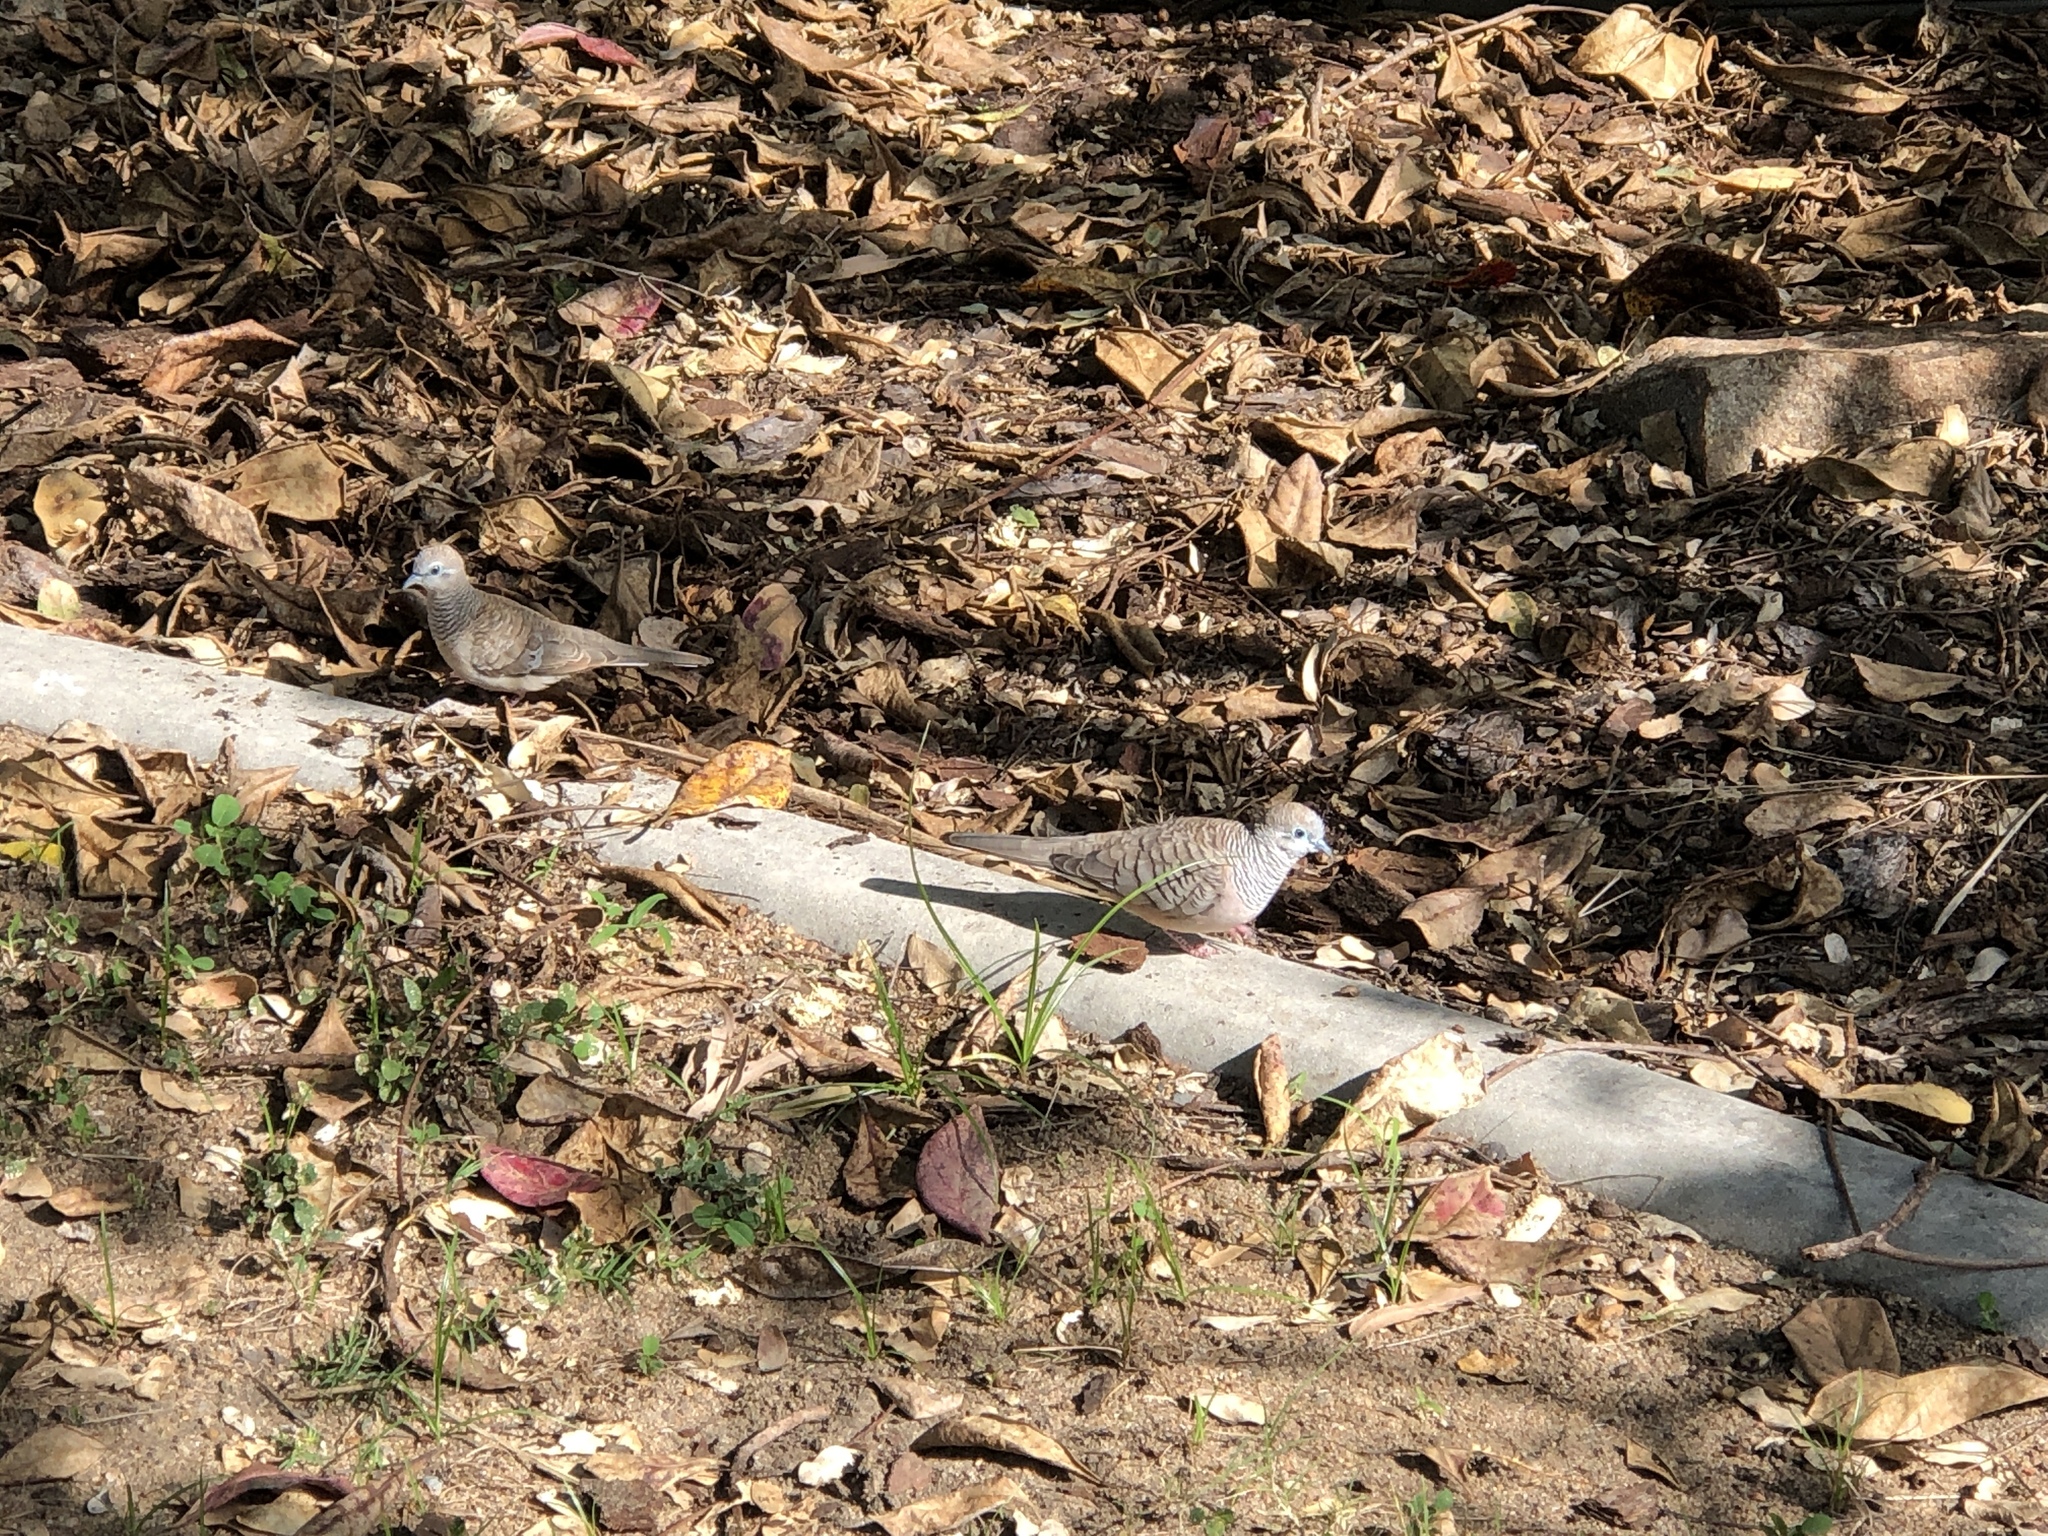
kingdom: Animalia
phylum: Chordata
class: Aves
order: Columbiformes
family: Columbidae
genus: Geopelia
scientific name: Geopelia placida
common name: Peaceful dove
